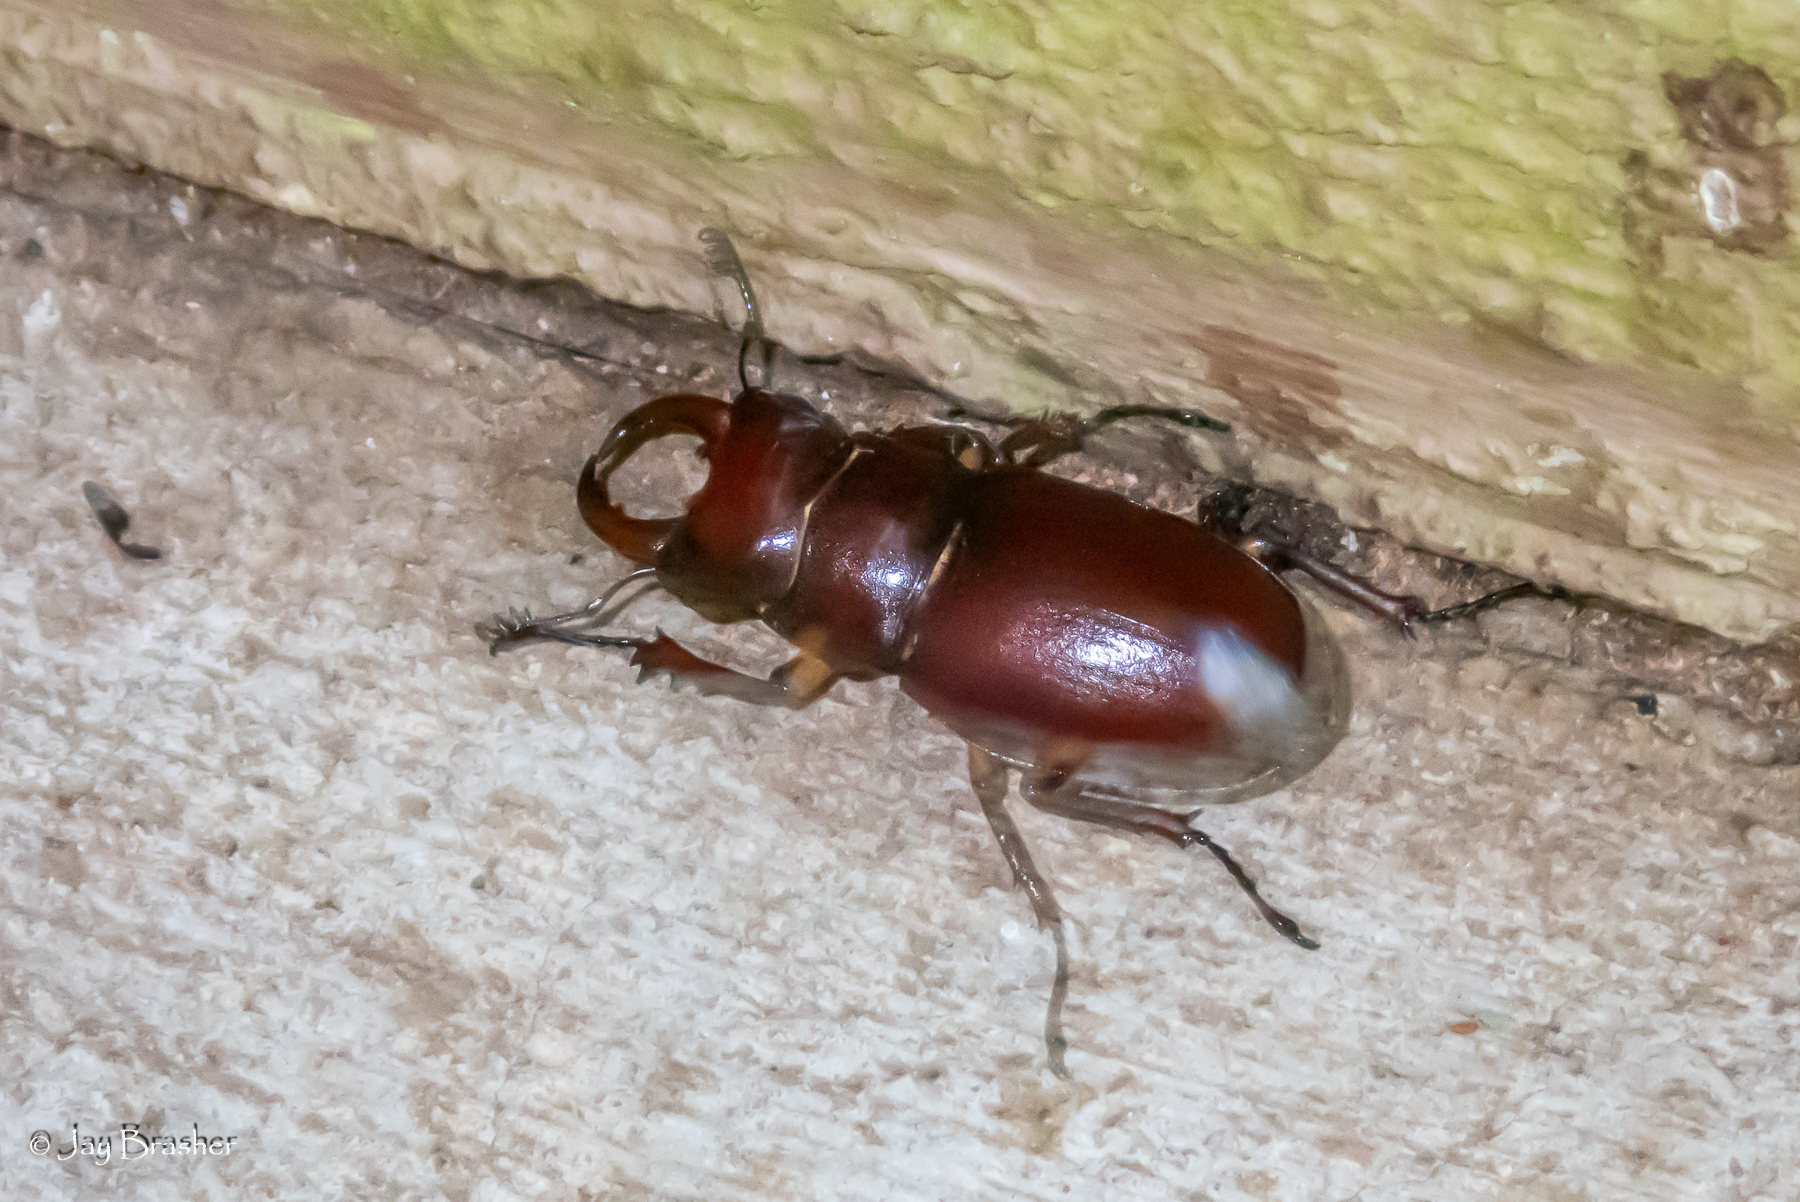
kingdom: Animalia
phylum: Arthropoda
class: Insecta
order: Coleoptera
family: Lucanidae
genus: Lucanus
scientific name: Lucanus capreolus
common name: Stag beetle
